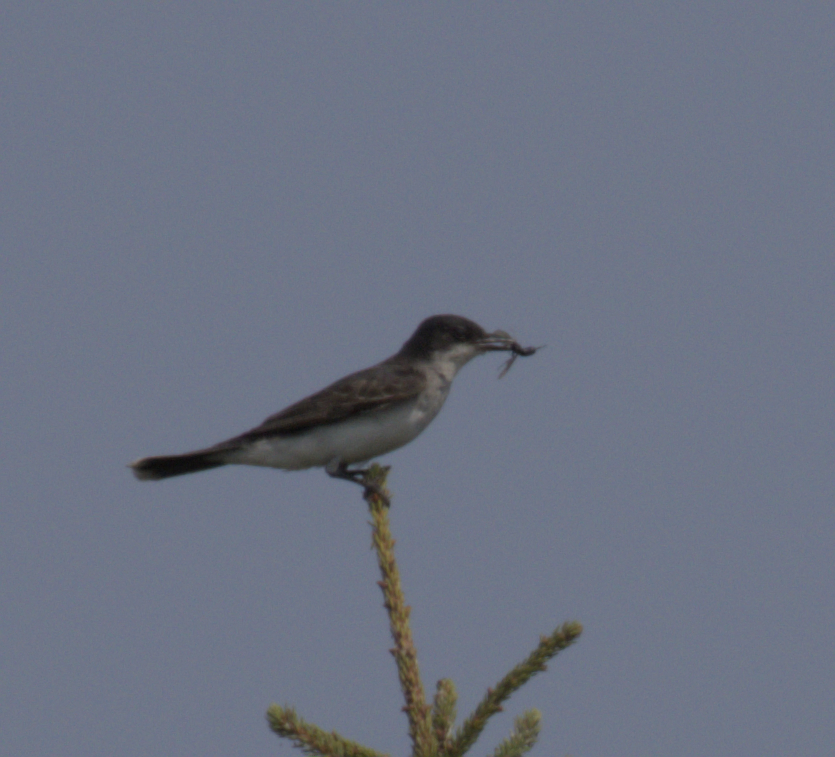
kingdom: Animalia
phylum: Chordata
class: Aves
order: Passeriformes
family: Tyrannidae
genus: Tyrannus
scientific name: Tyrannus tyrannus
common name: Eastern kingbird
